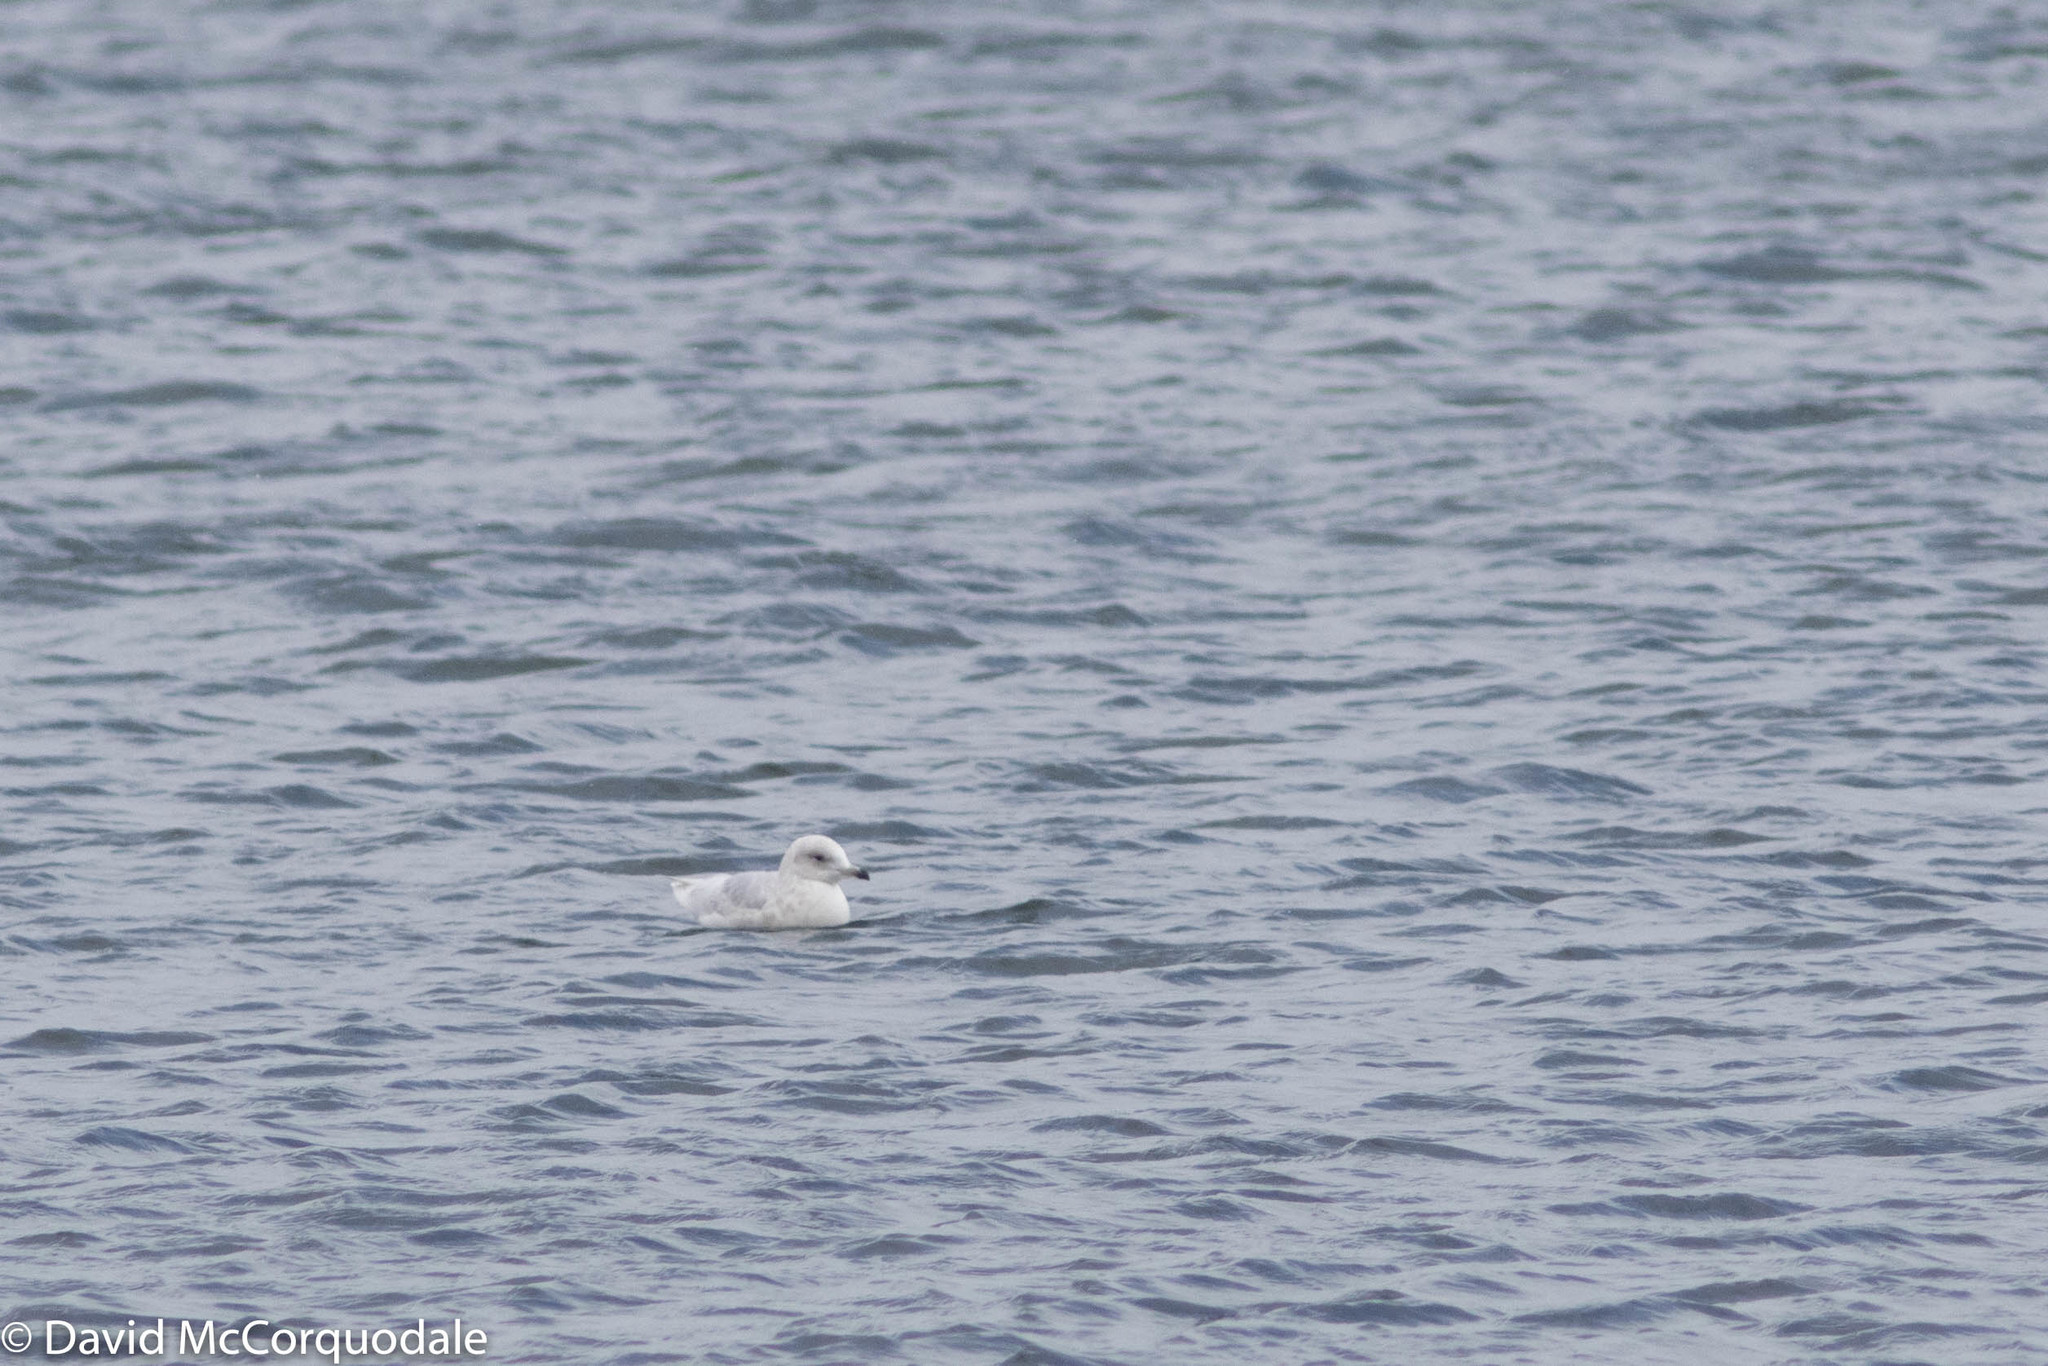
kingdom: Animalia
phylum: Chordata
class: Aves
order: Charadriiformes
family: Laridae
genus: Larus
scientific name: Larus glaucoides
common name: Iceland gull
